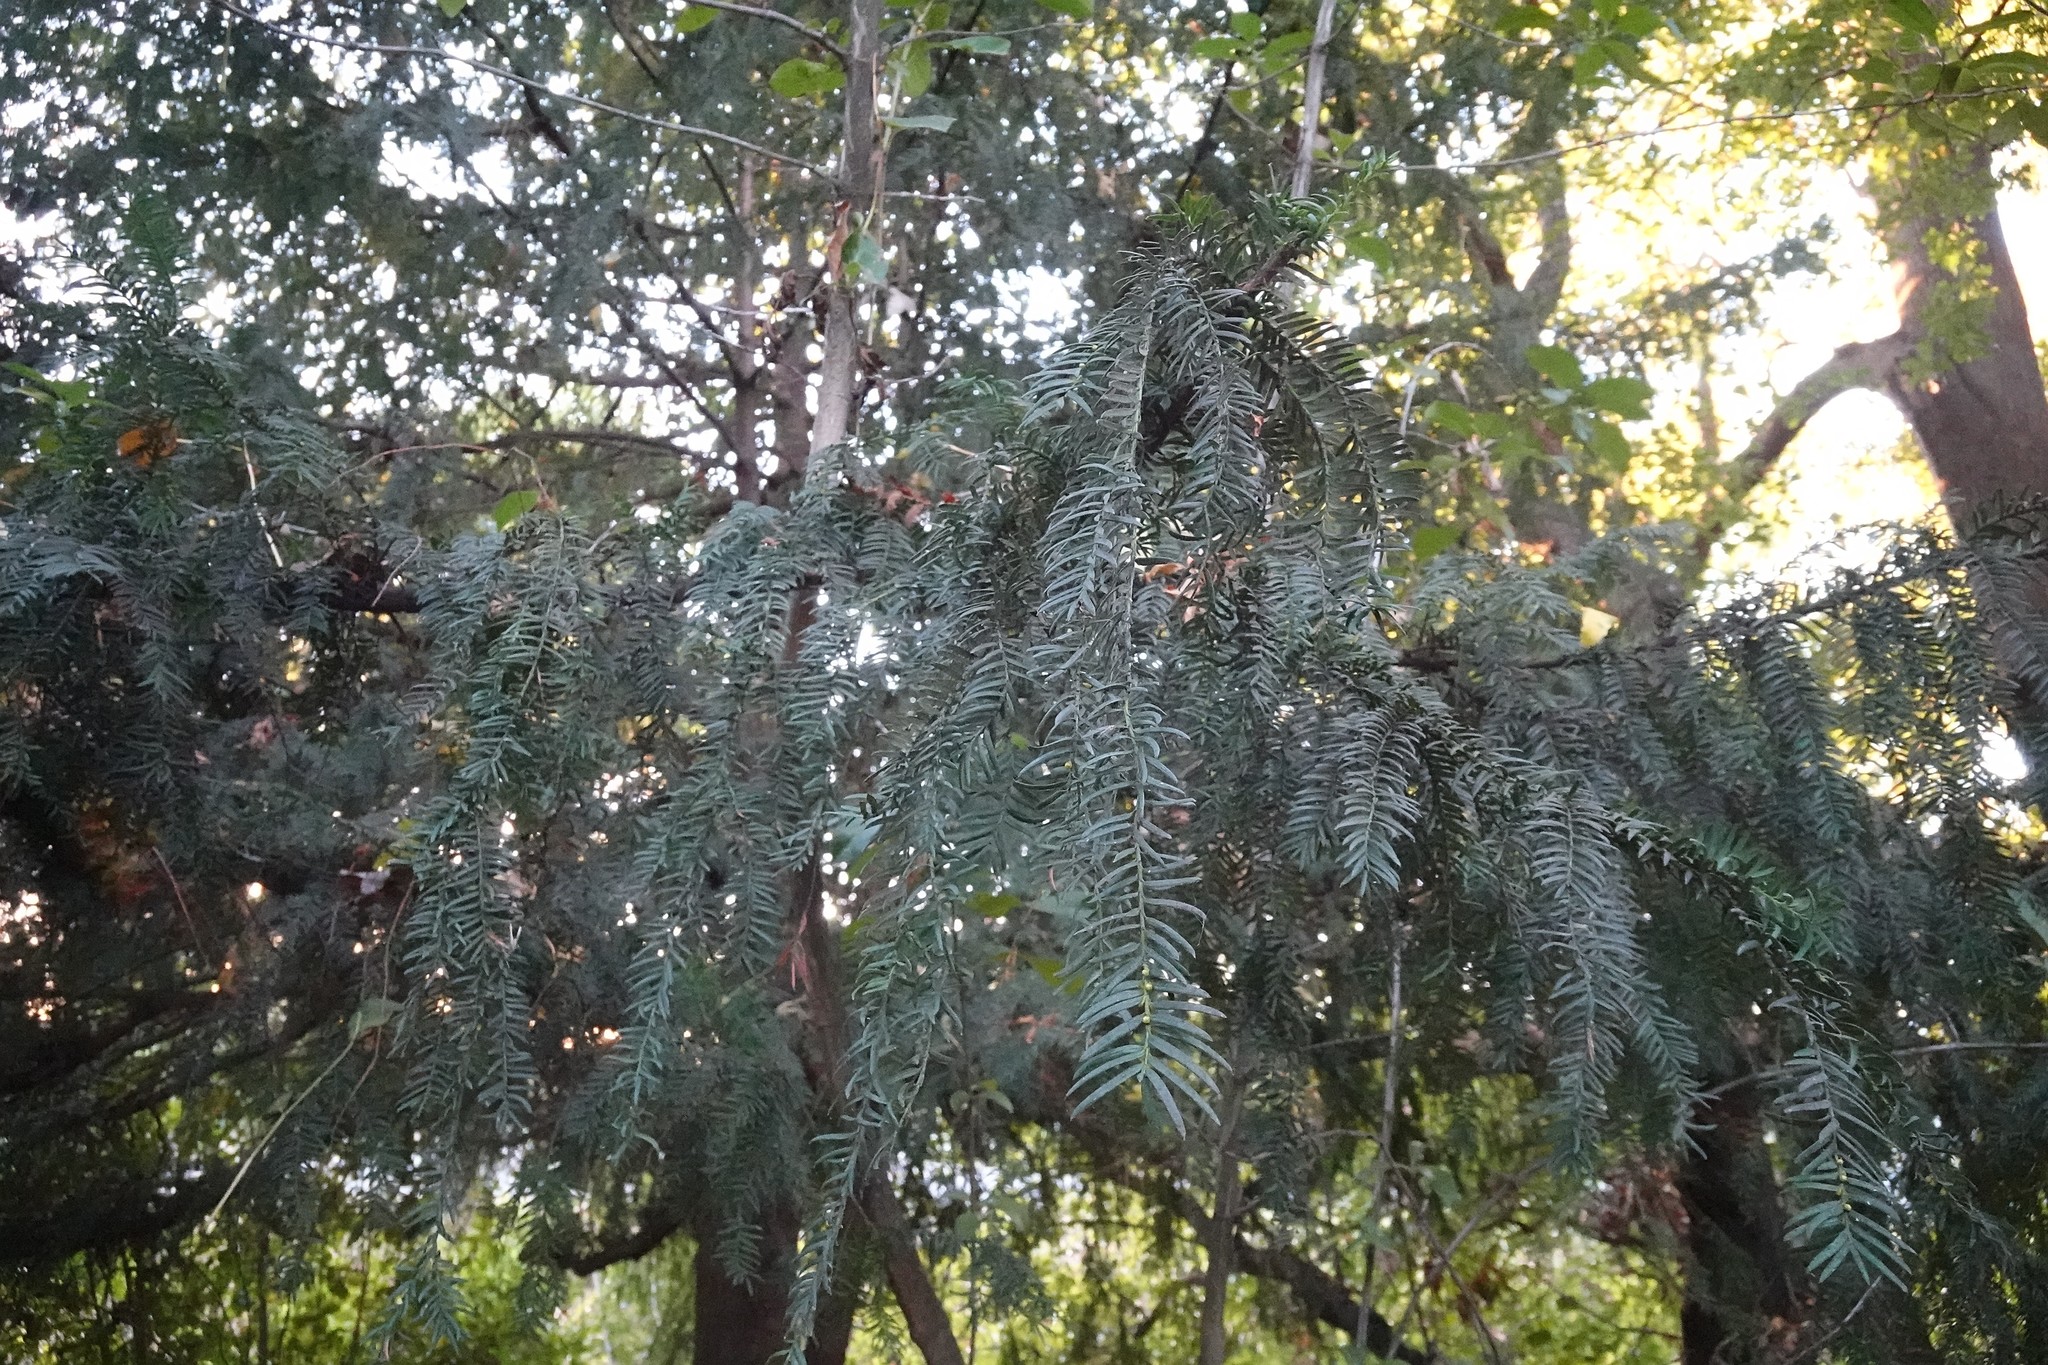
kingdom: Plantae
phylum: Tracheophyta
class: Pinopsida
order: Pinales
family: Taxaceae
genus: Taxus
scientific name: Taxus baccata
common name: Yew
